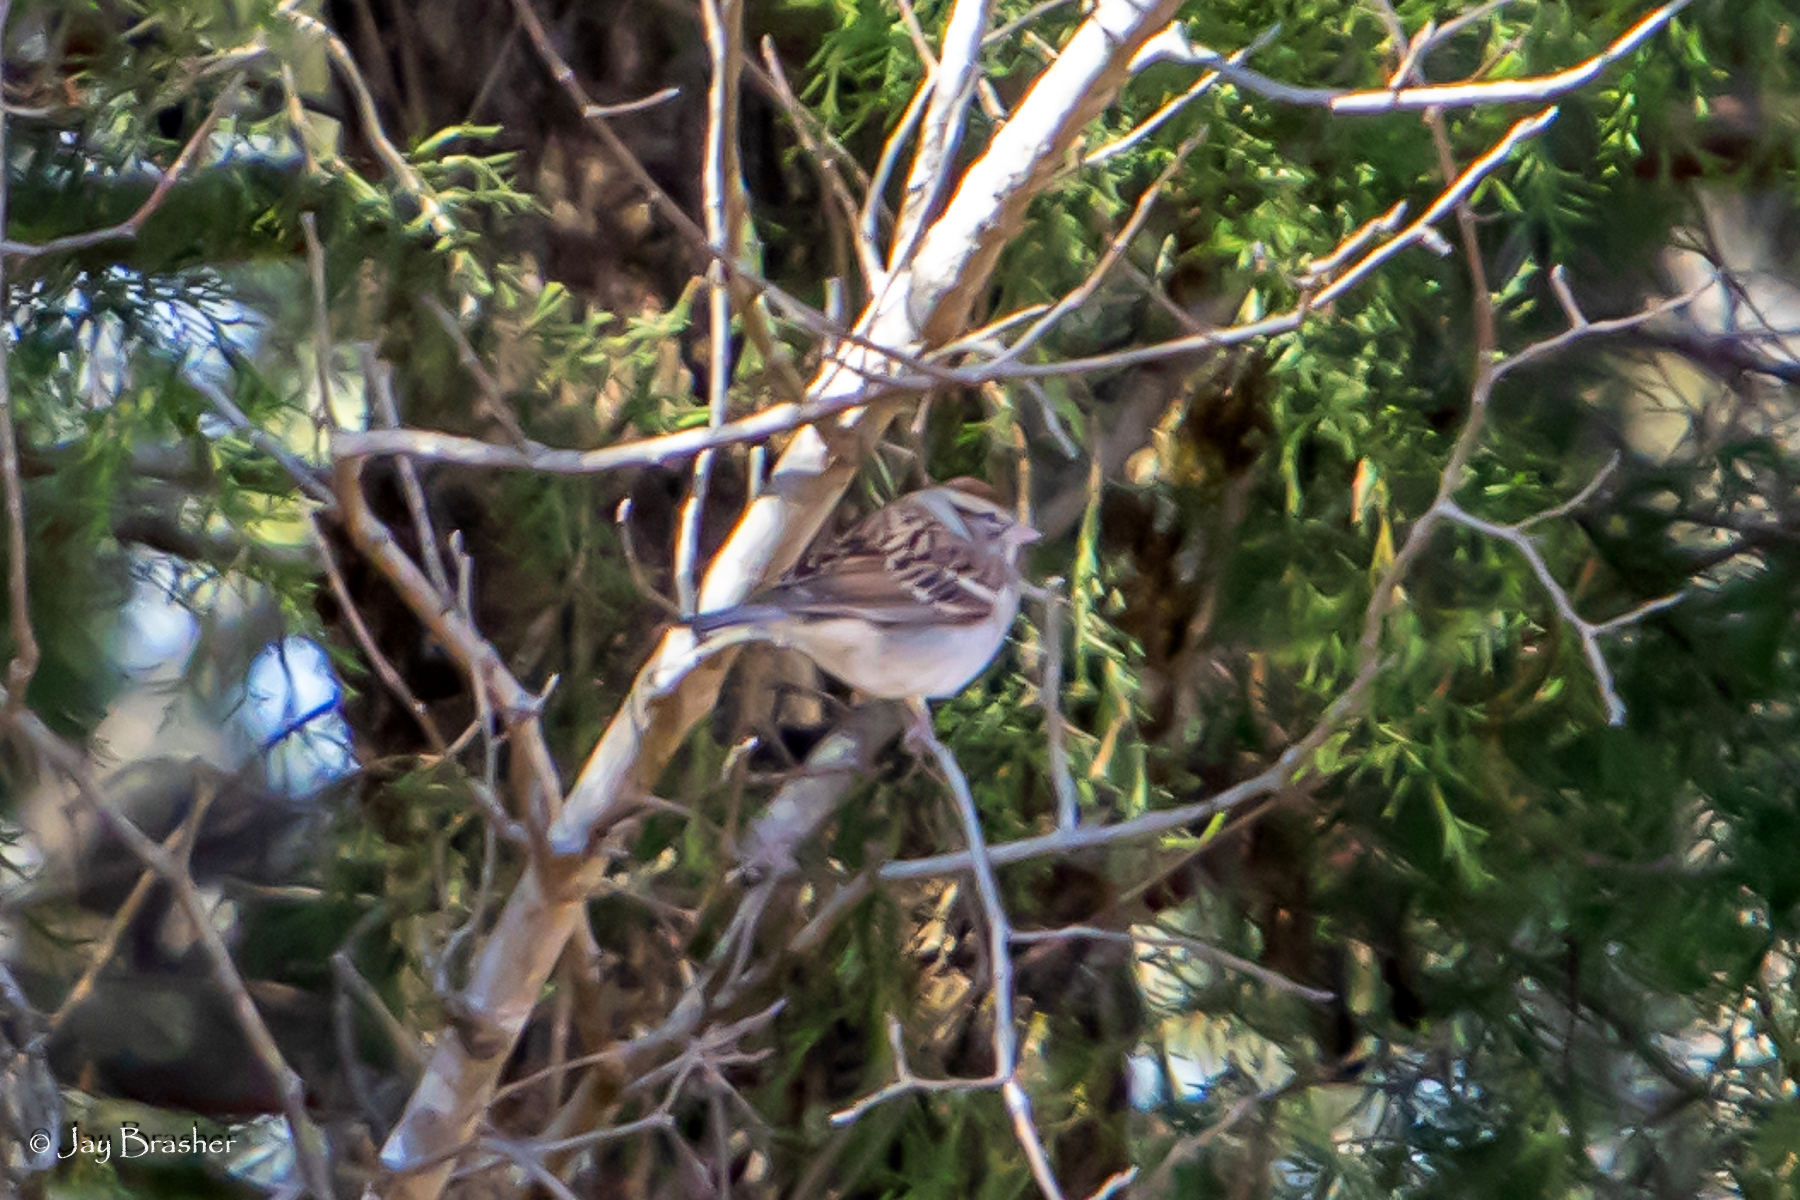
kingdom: Animalia
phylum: Chordata
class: Aves
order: Passeriformes
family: Passerellidae
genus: Spizella
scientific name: Spizella passerina
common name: Chipping sparrow
